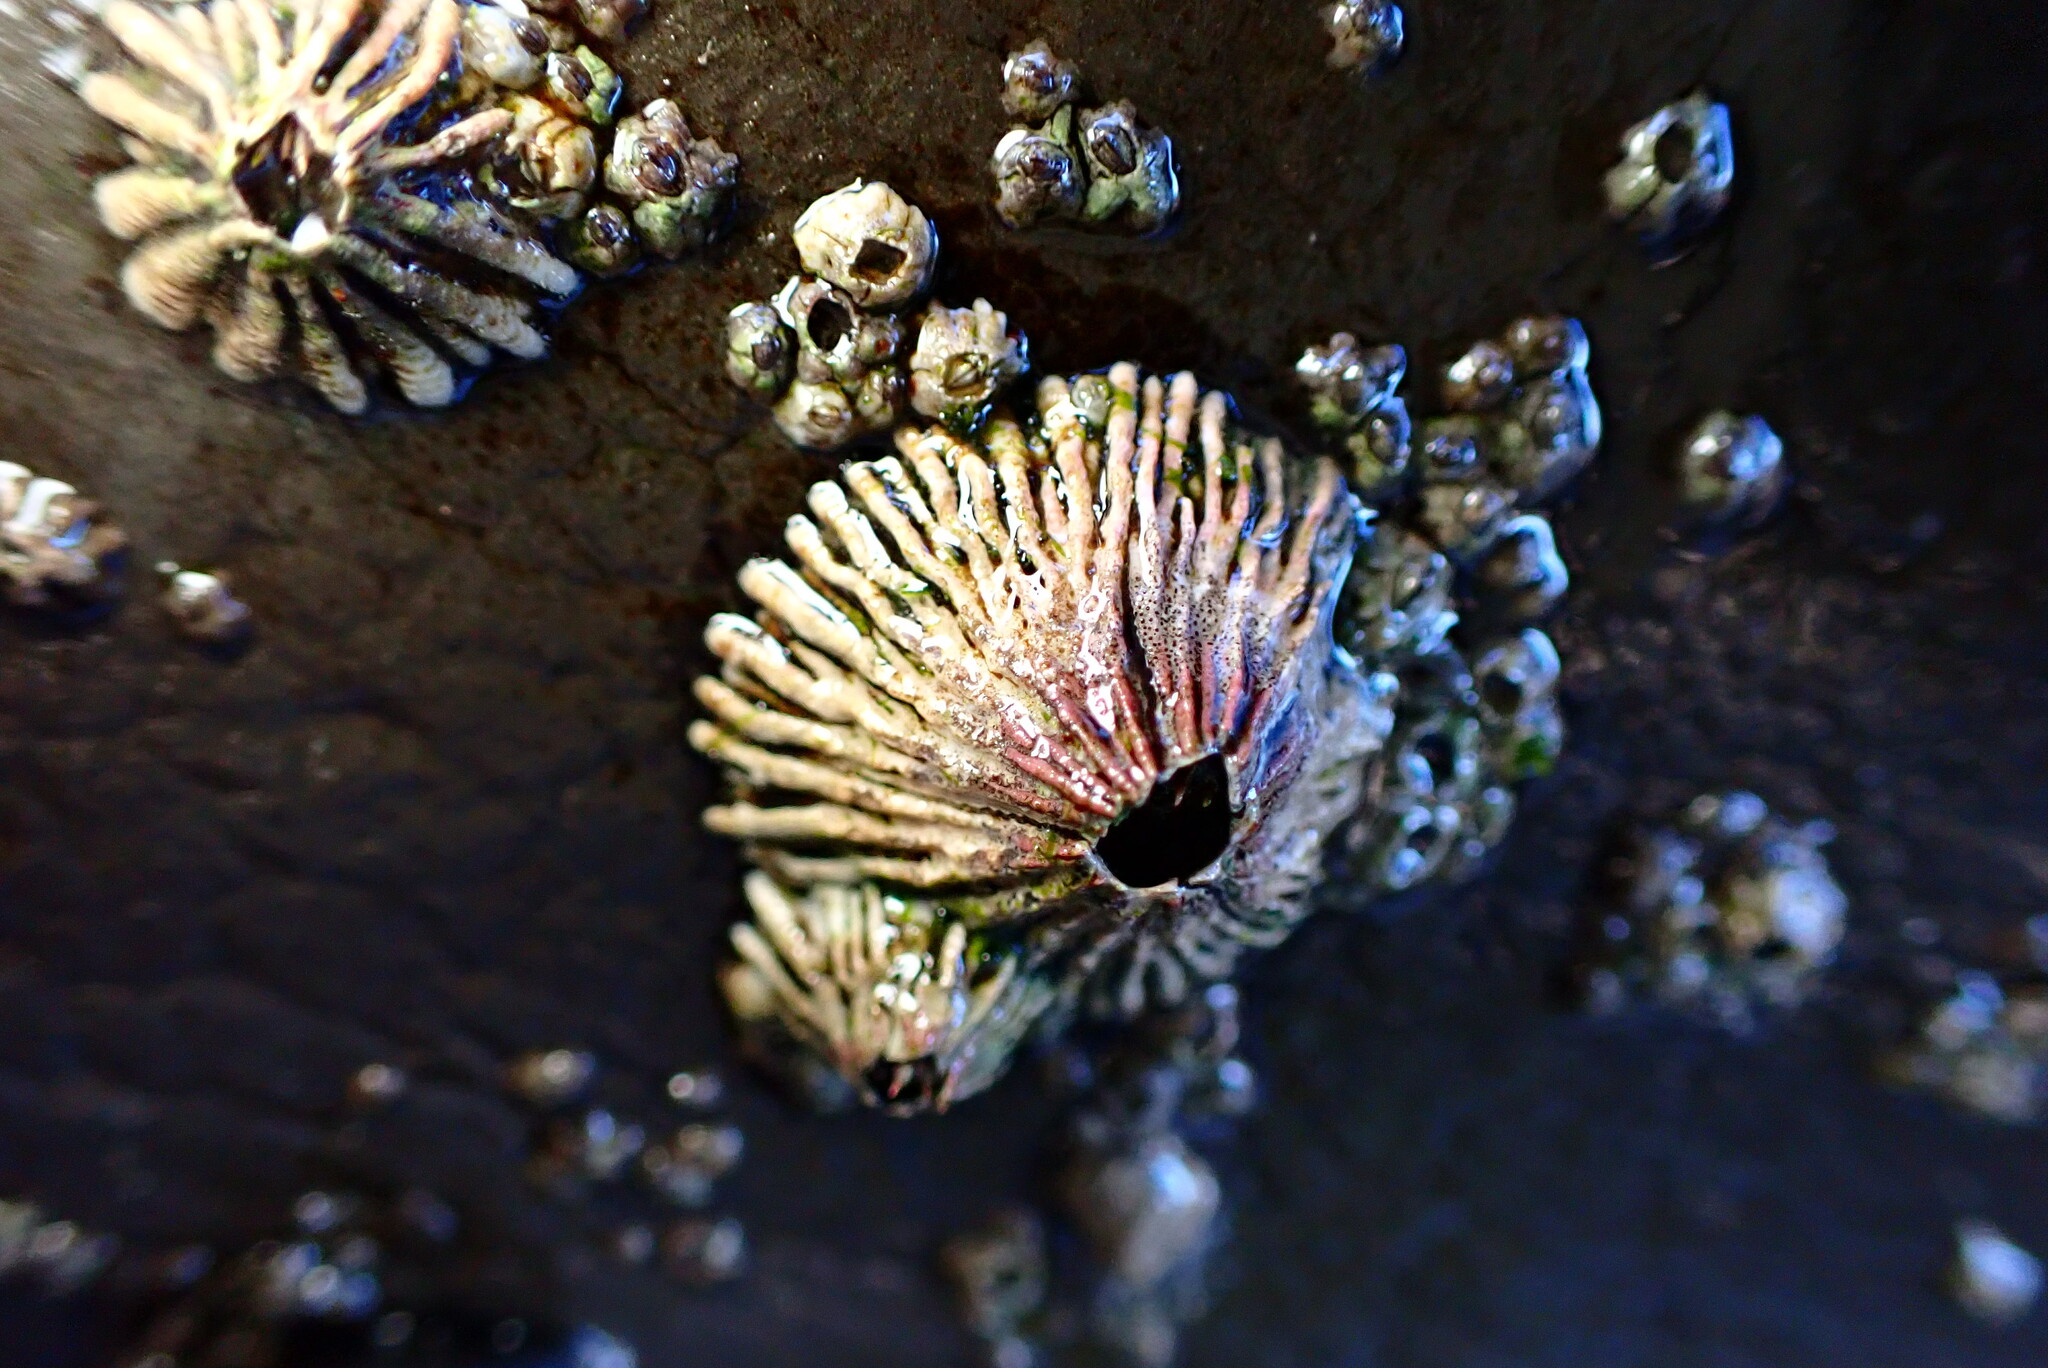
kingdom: Animalia
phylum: Arthropoda
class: Maxillopoda
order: Sessilia
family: Tetraclitidae
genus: Tetraclita
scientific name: Tetraclita rubescens
